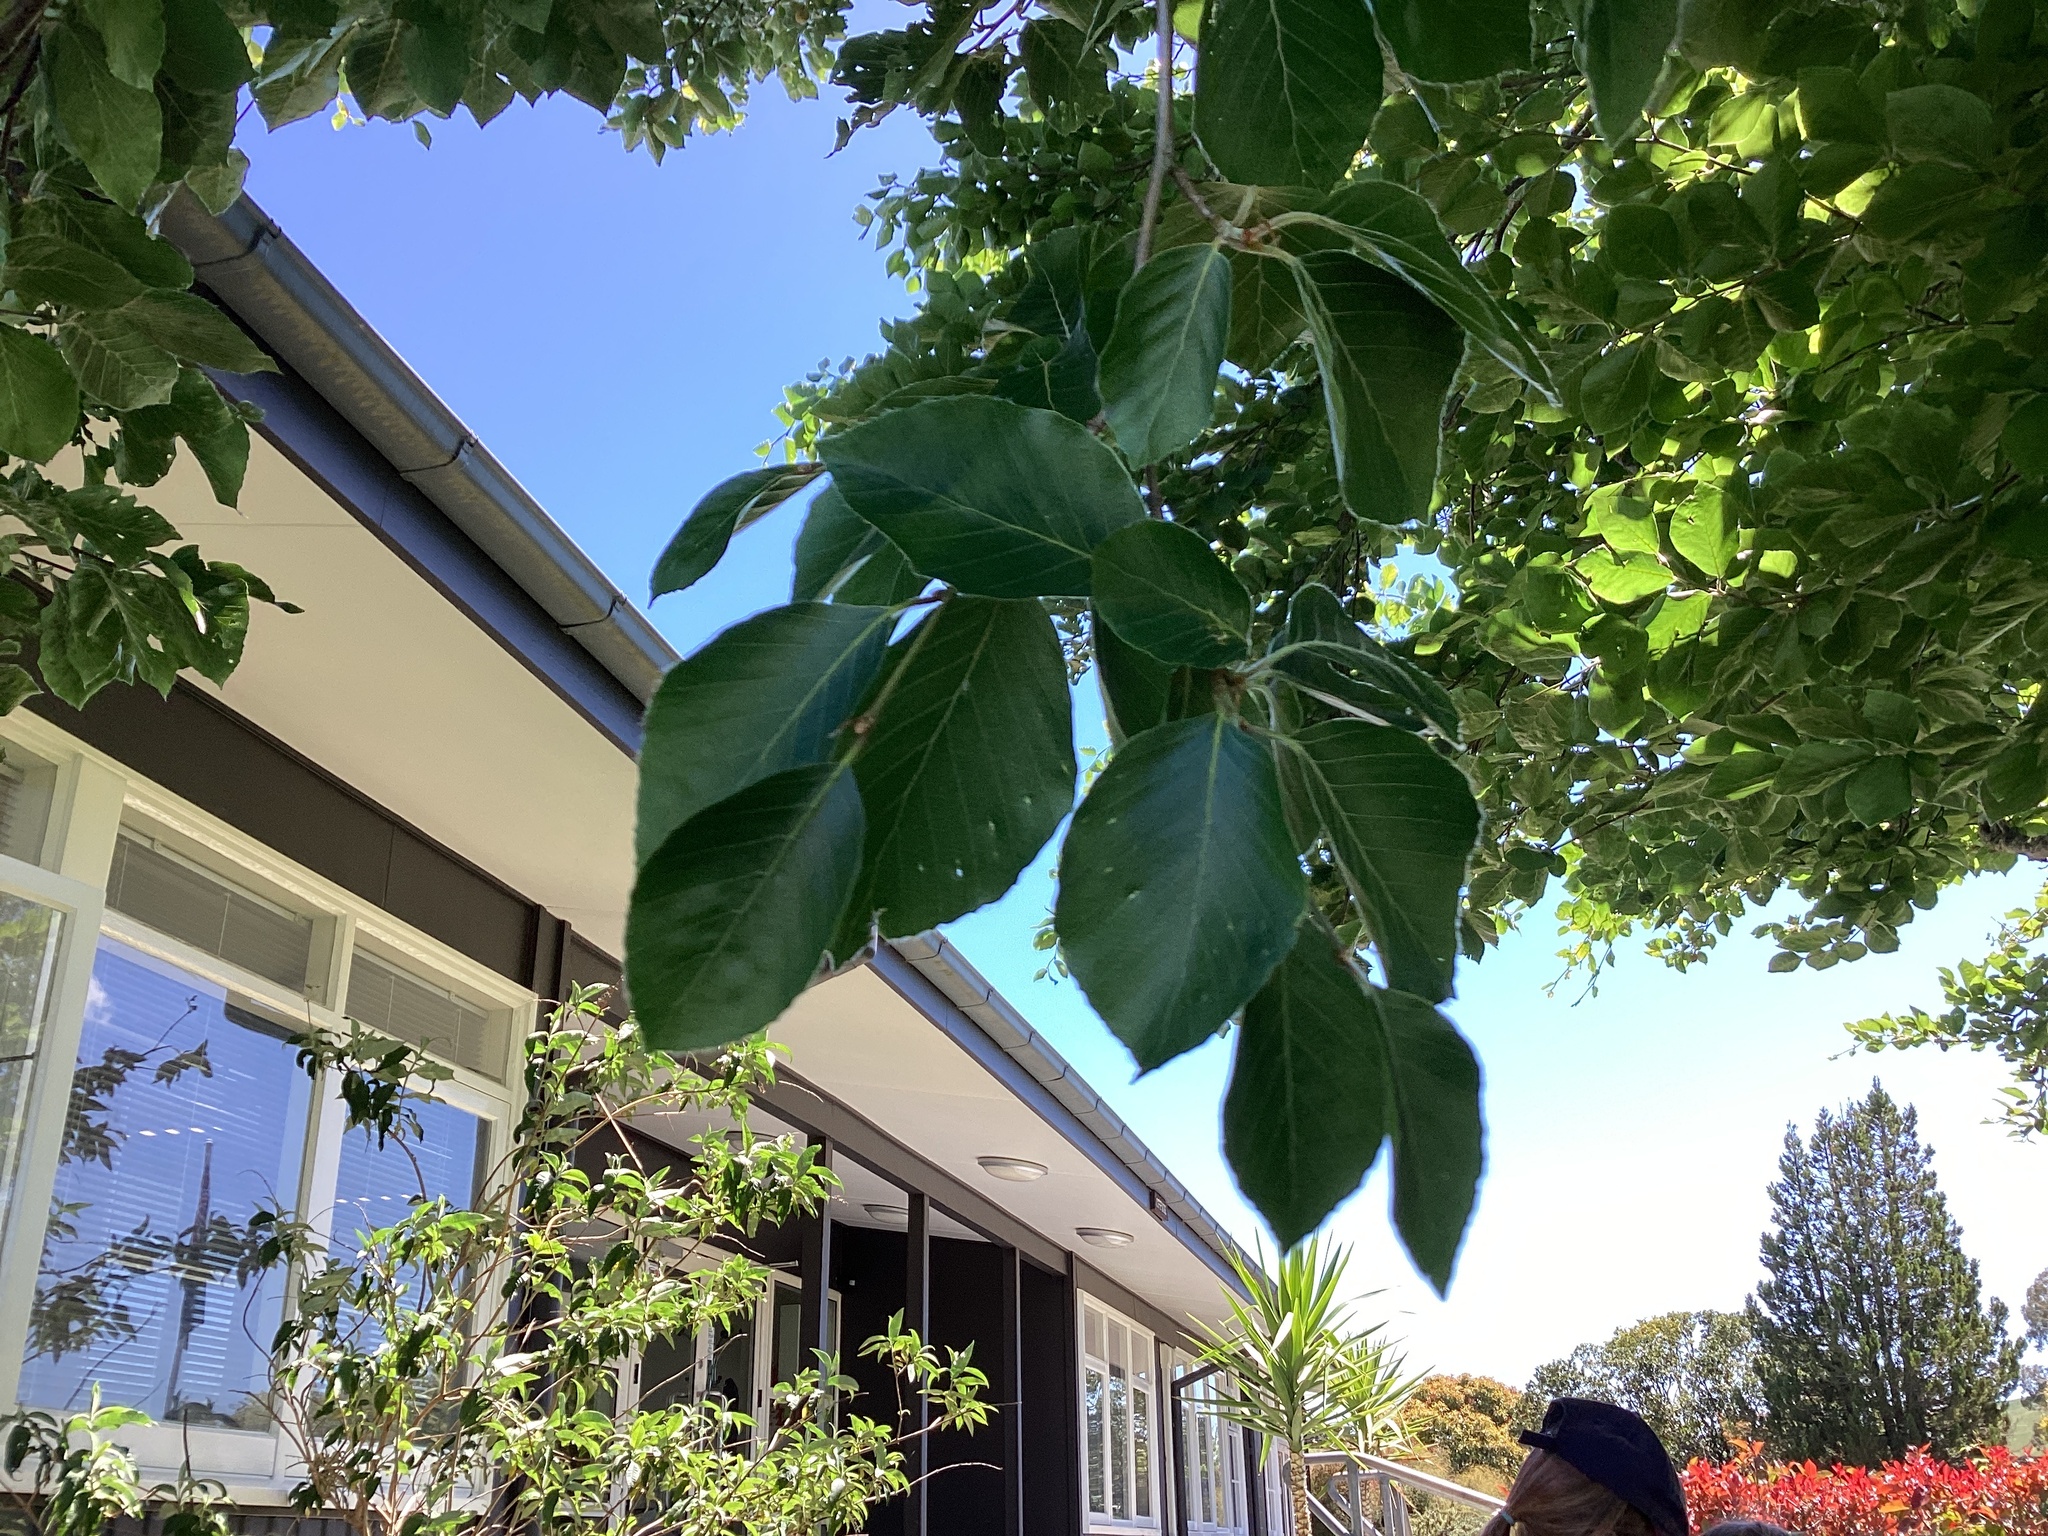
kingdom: Plantae
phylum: Tracheophyta
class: Magnoliopsida
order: Fagales
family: Fagaceae
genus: Fagus
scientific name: Fagus sylvatica
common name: Beech
